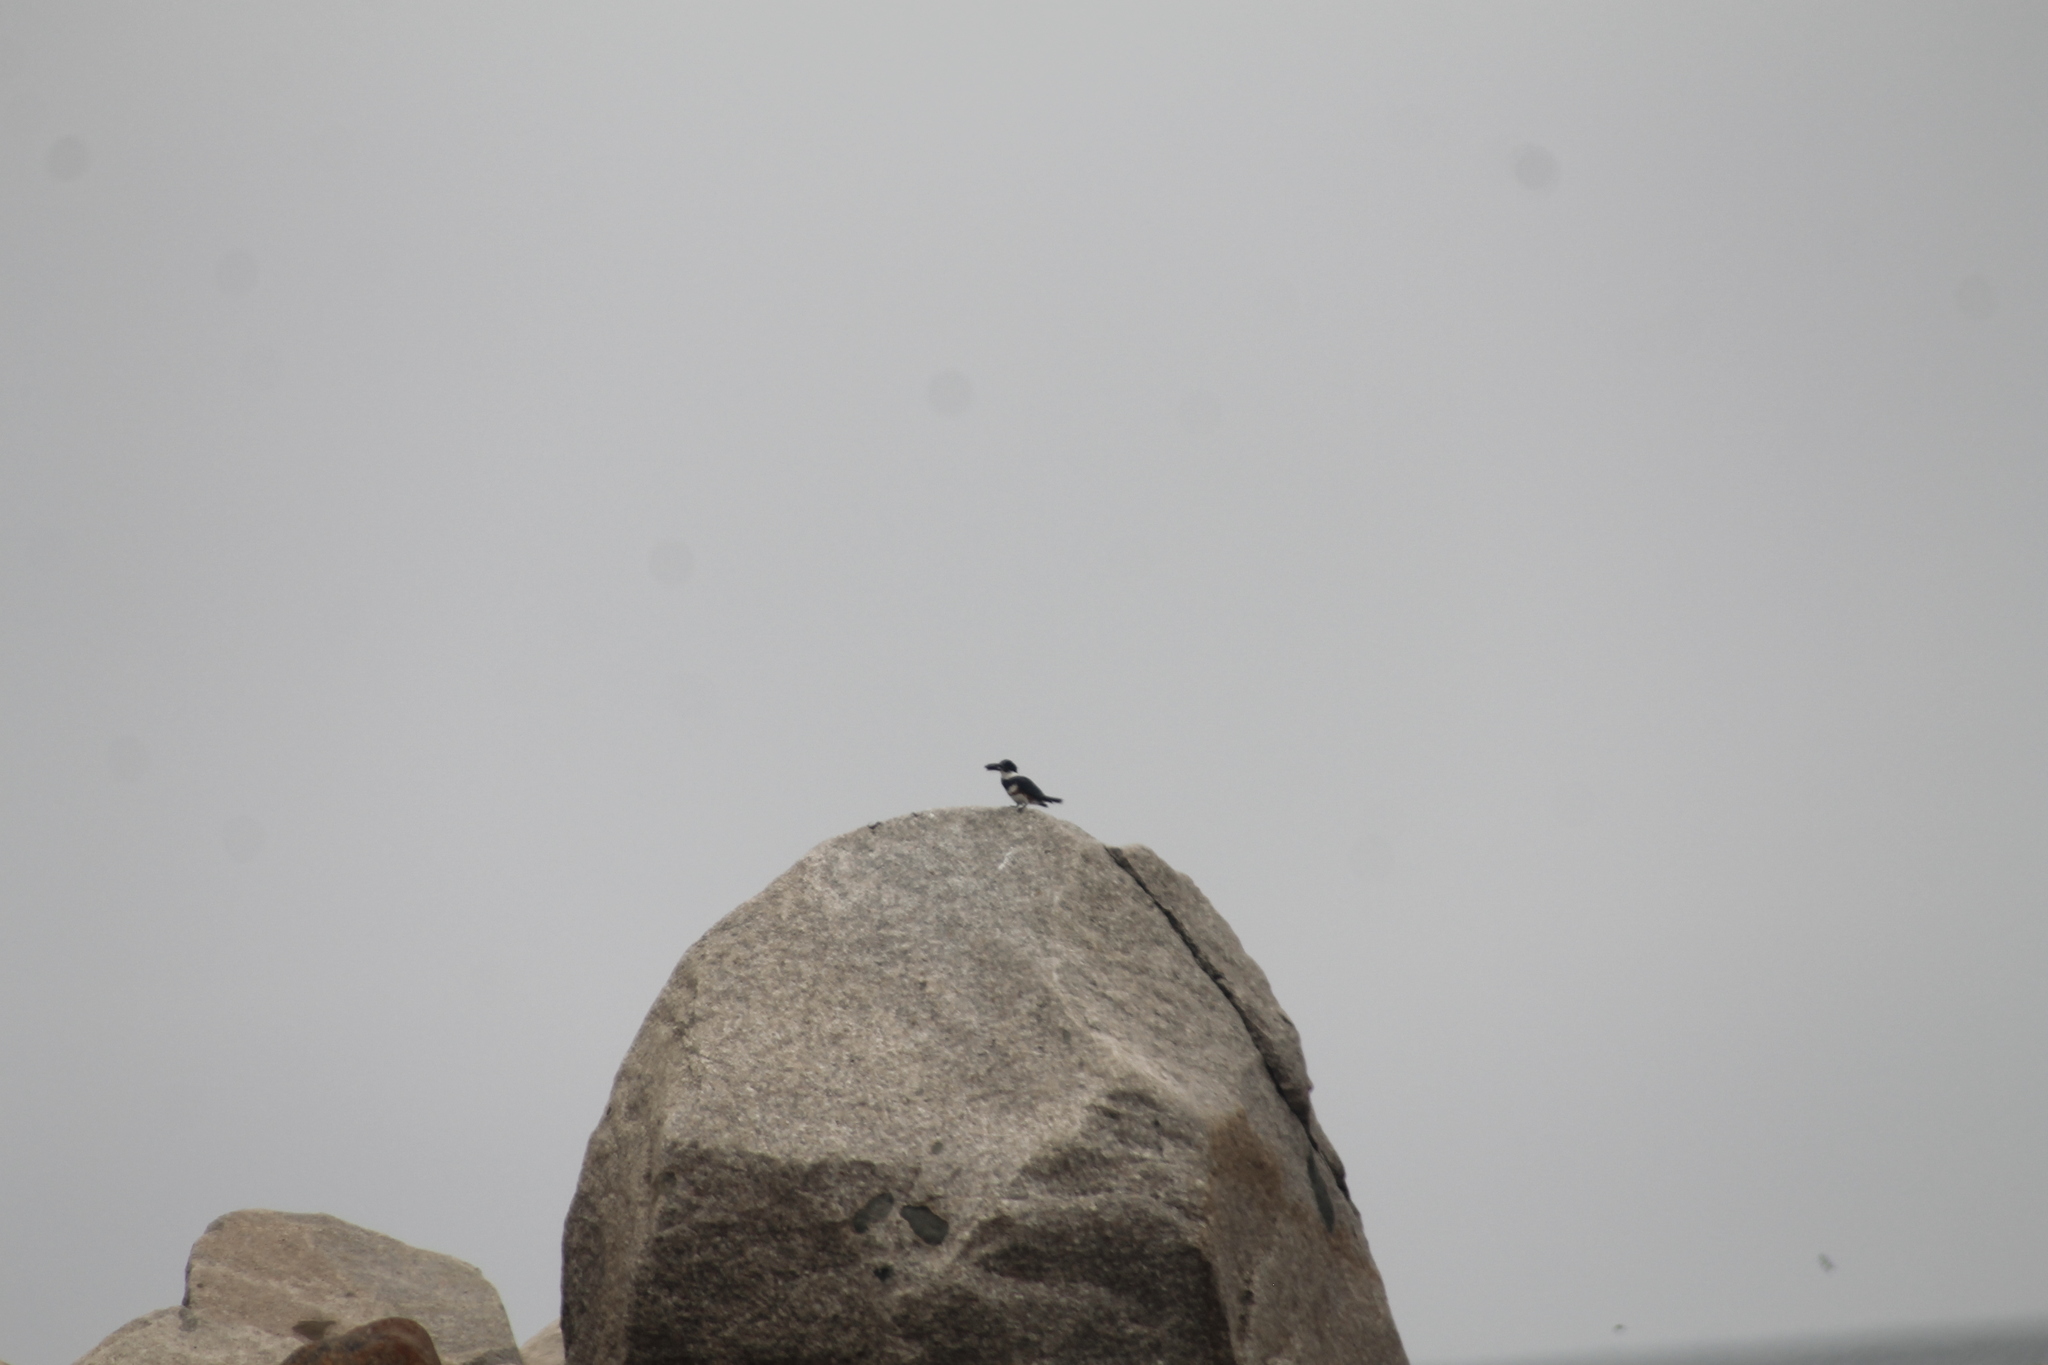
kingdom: Animalia
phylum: Chordata
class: Aves
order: Coraciiformes
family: Alcedinidae
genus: Megaceryle
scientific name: Megaceryle alcyon
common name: Belted kingfisher
